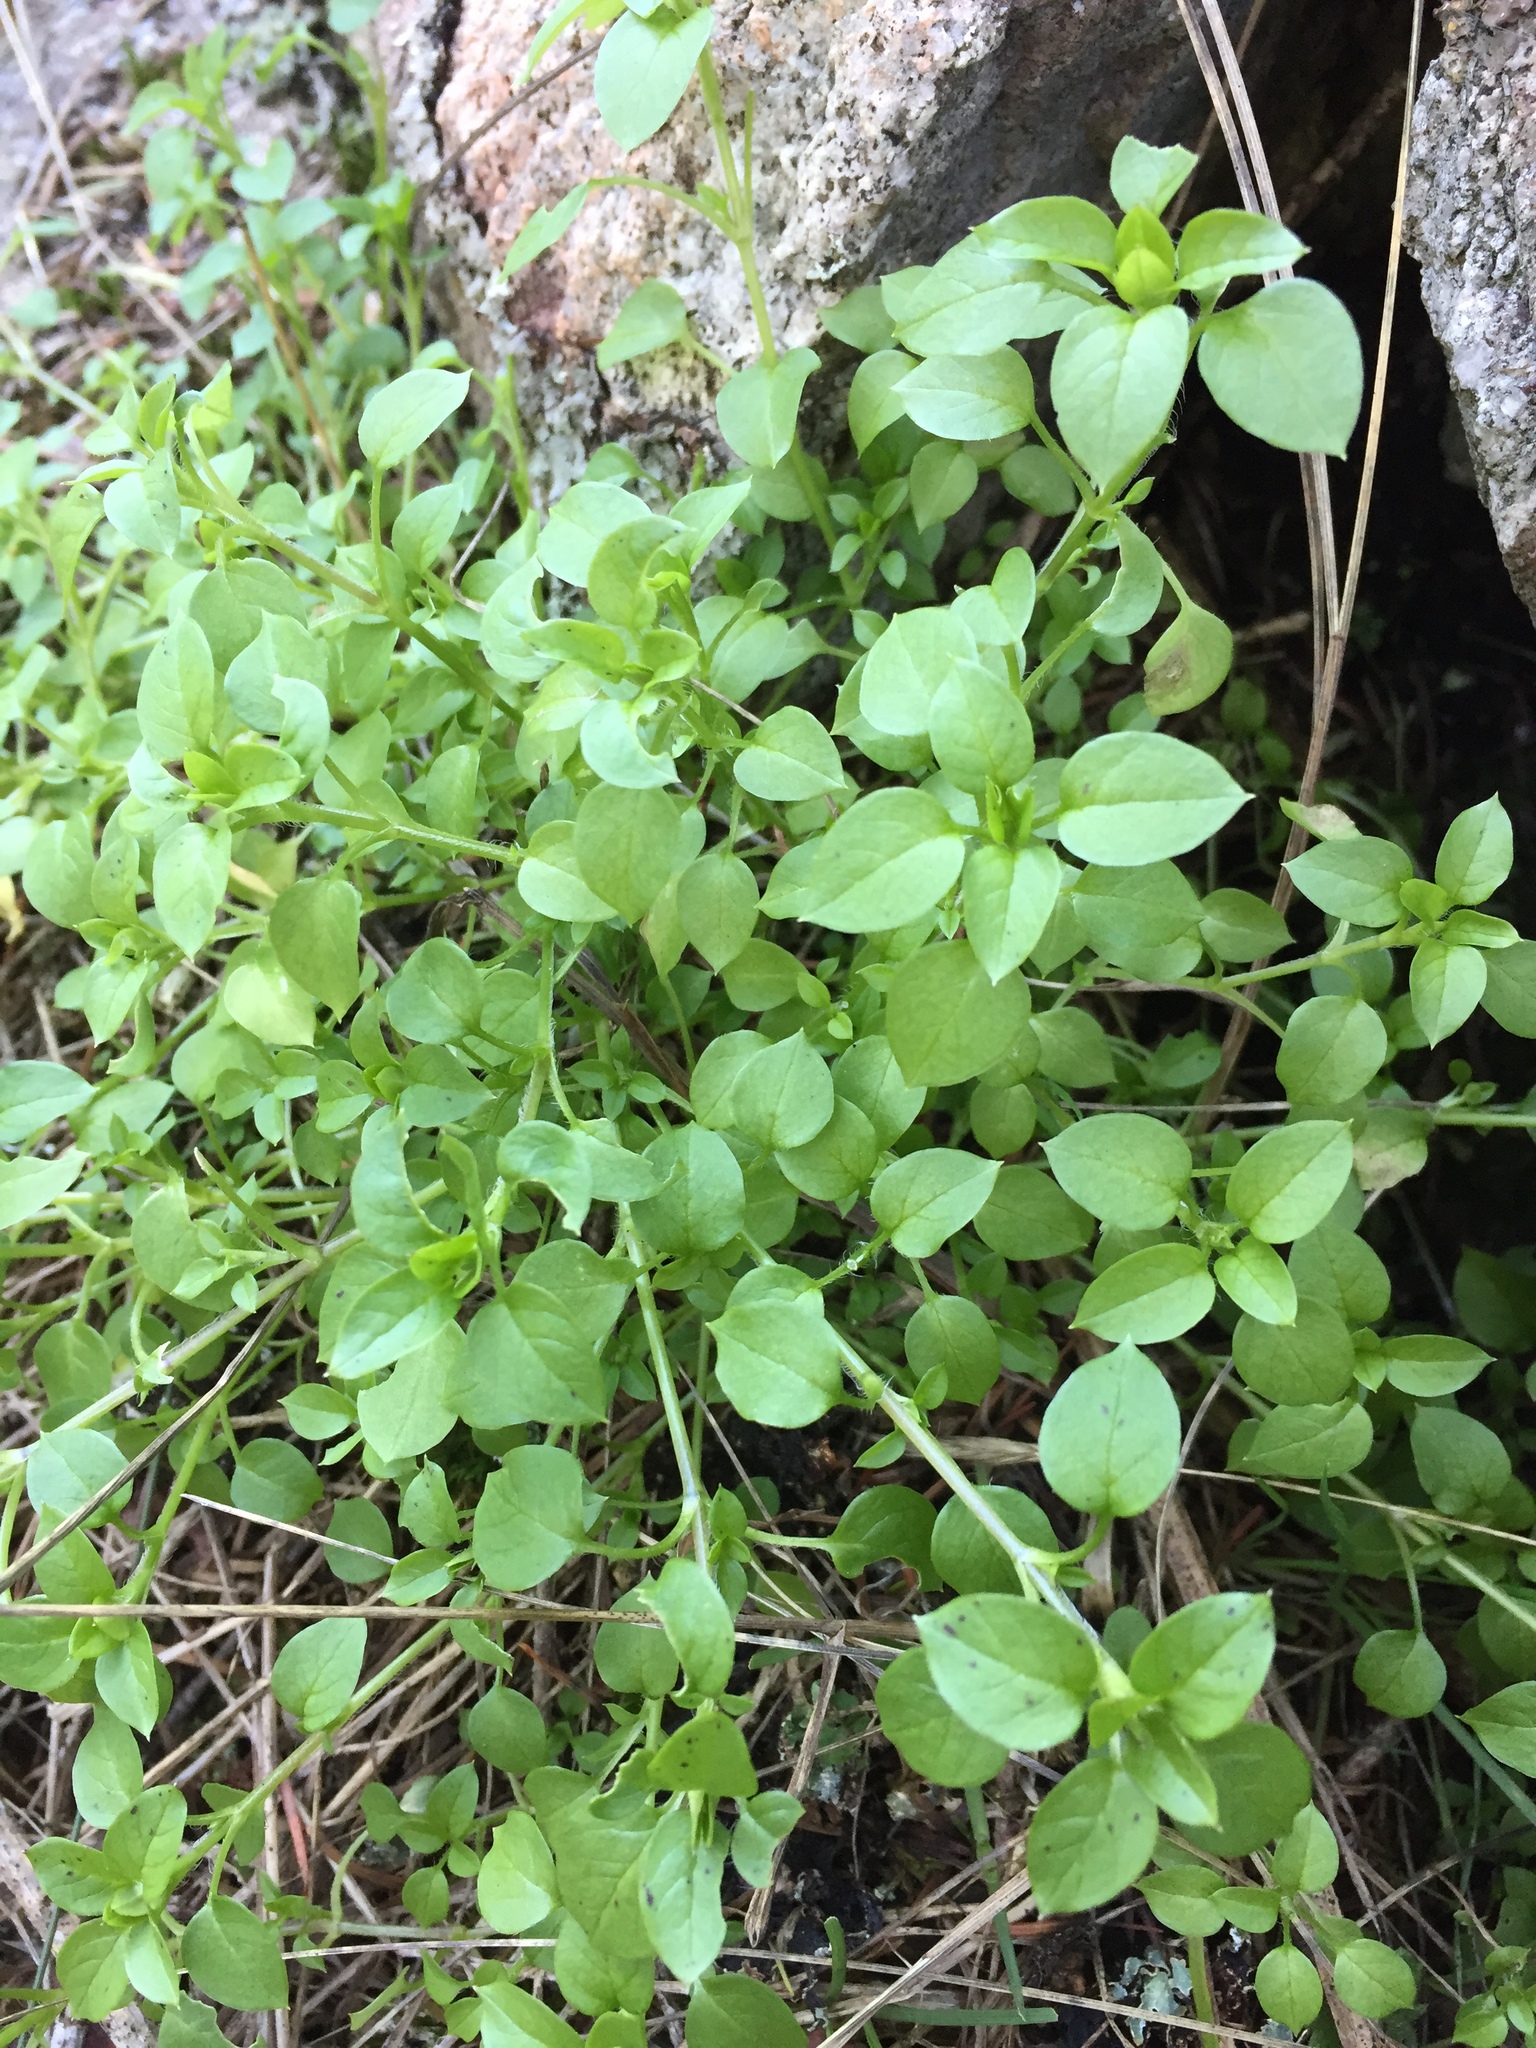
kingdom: Plantae
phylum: Tracheophyta
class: Magnoliopsida
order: Caryophyllales
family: Caryophyllaceae
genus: Stellaria
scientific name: Stellaria media
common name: Common chickweed
